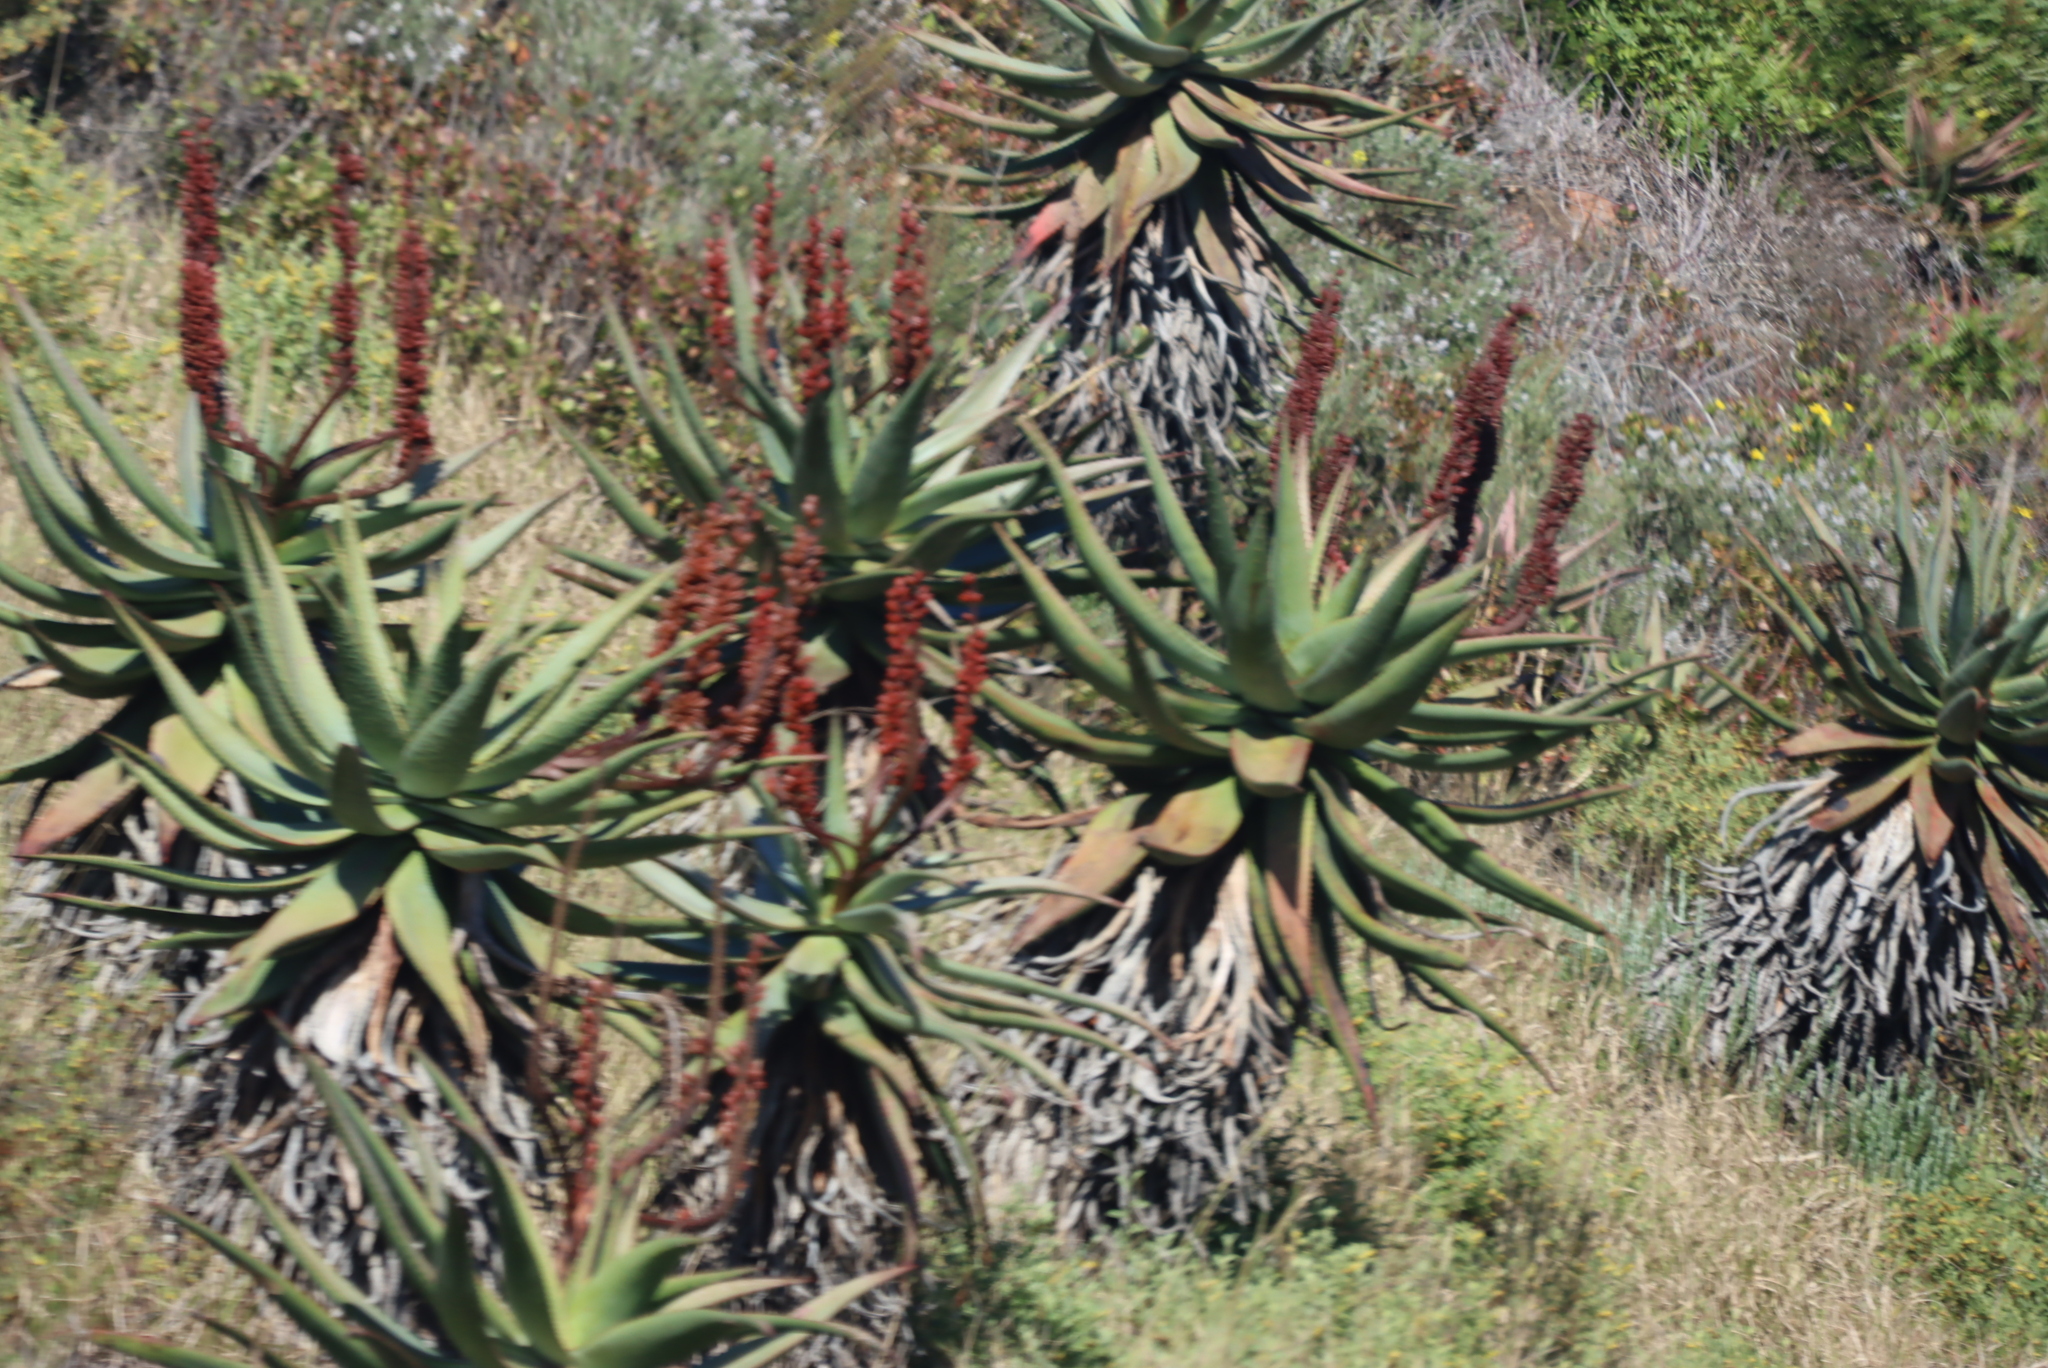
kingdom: Plantae
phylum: Tracheophyta
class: Liliopsida
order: Asparagales
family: Asphodelaceae
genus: Aloe
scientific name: Aloe ferox
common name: Bitter aloe
